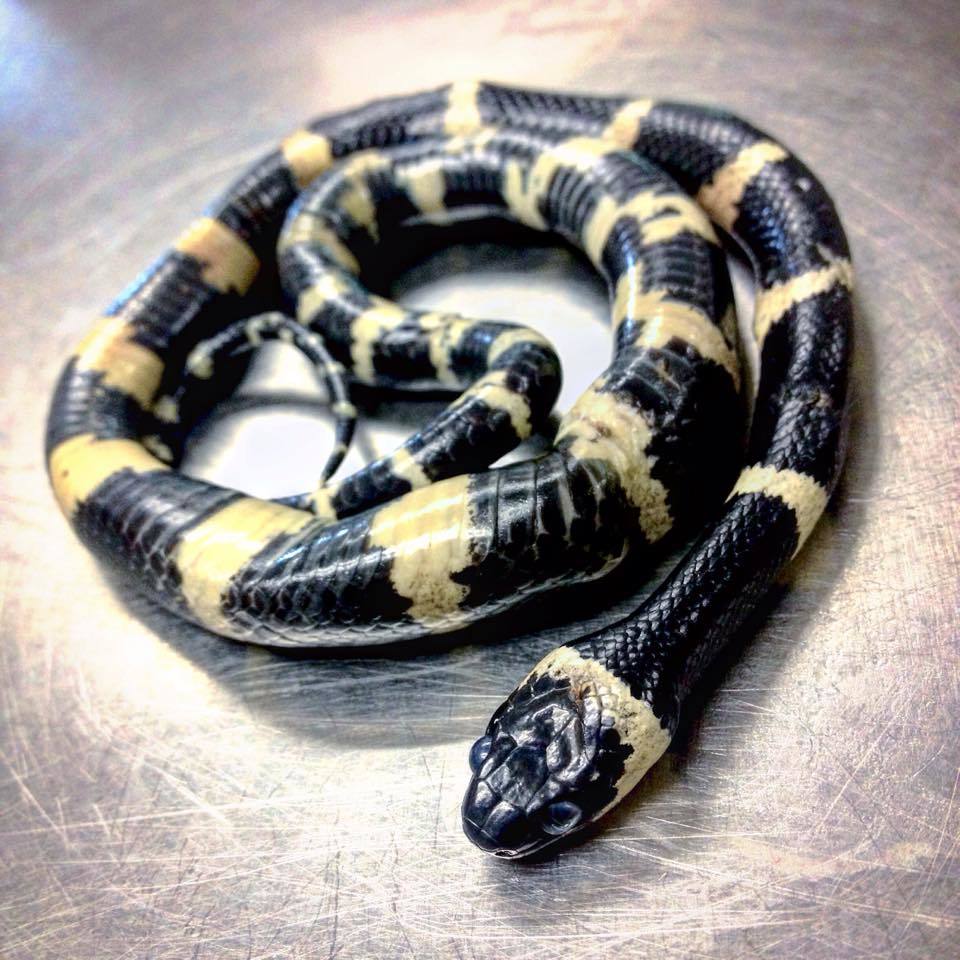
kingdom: Animalia
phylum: Chordata
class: Squamata
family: Colubridae
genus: Tropidodipsas
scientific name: Tropidodipsas fasciata
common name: Banded snail sucker
